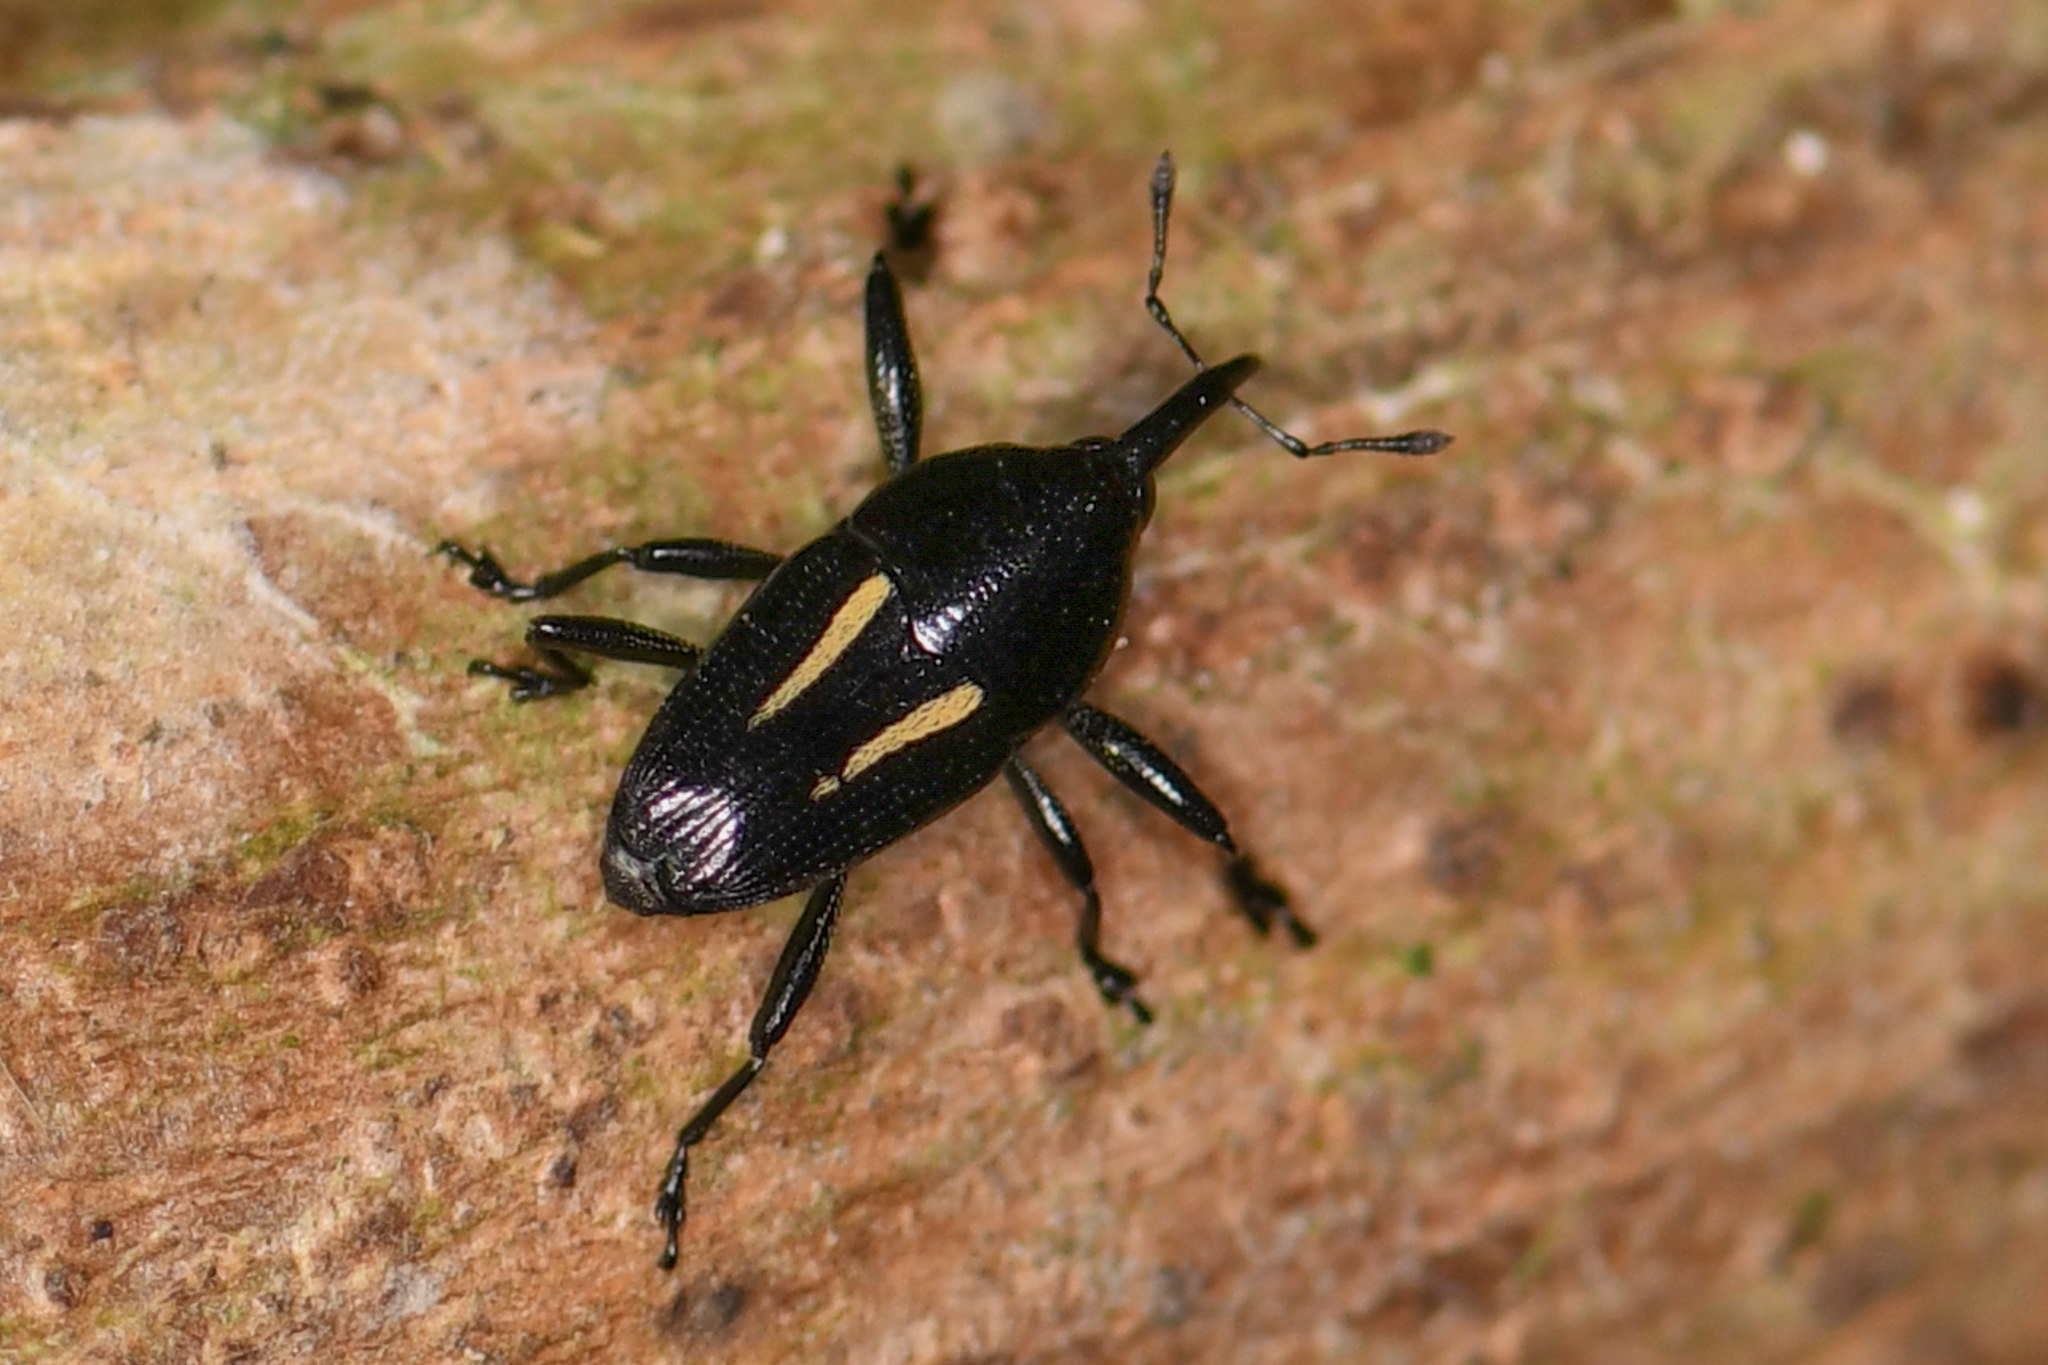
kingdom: Animalia
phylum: Arthropoda
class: Insecta
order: Coleoptera
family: Curculionidae
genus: Linomadarus
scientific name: Linomadarus bilineatus
